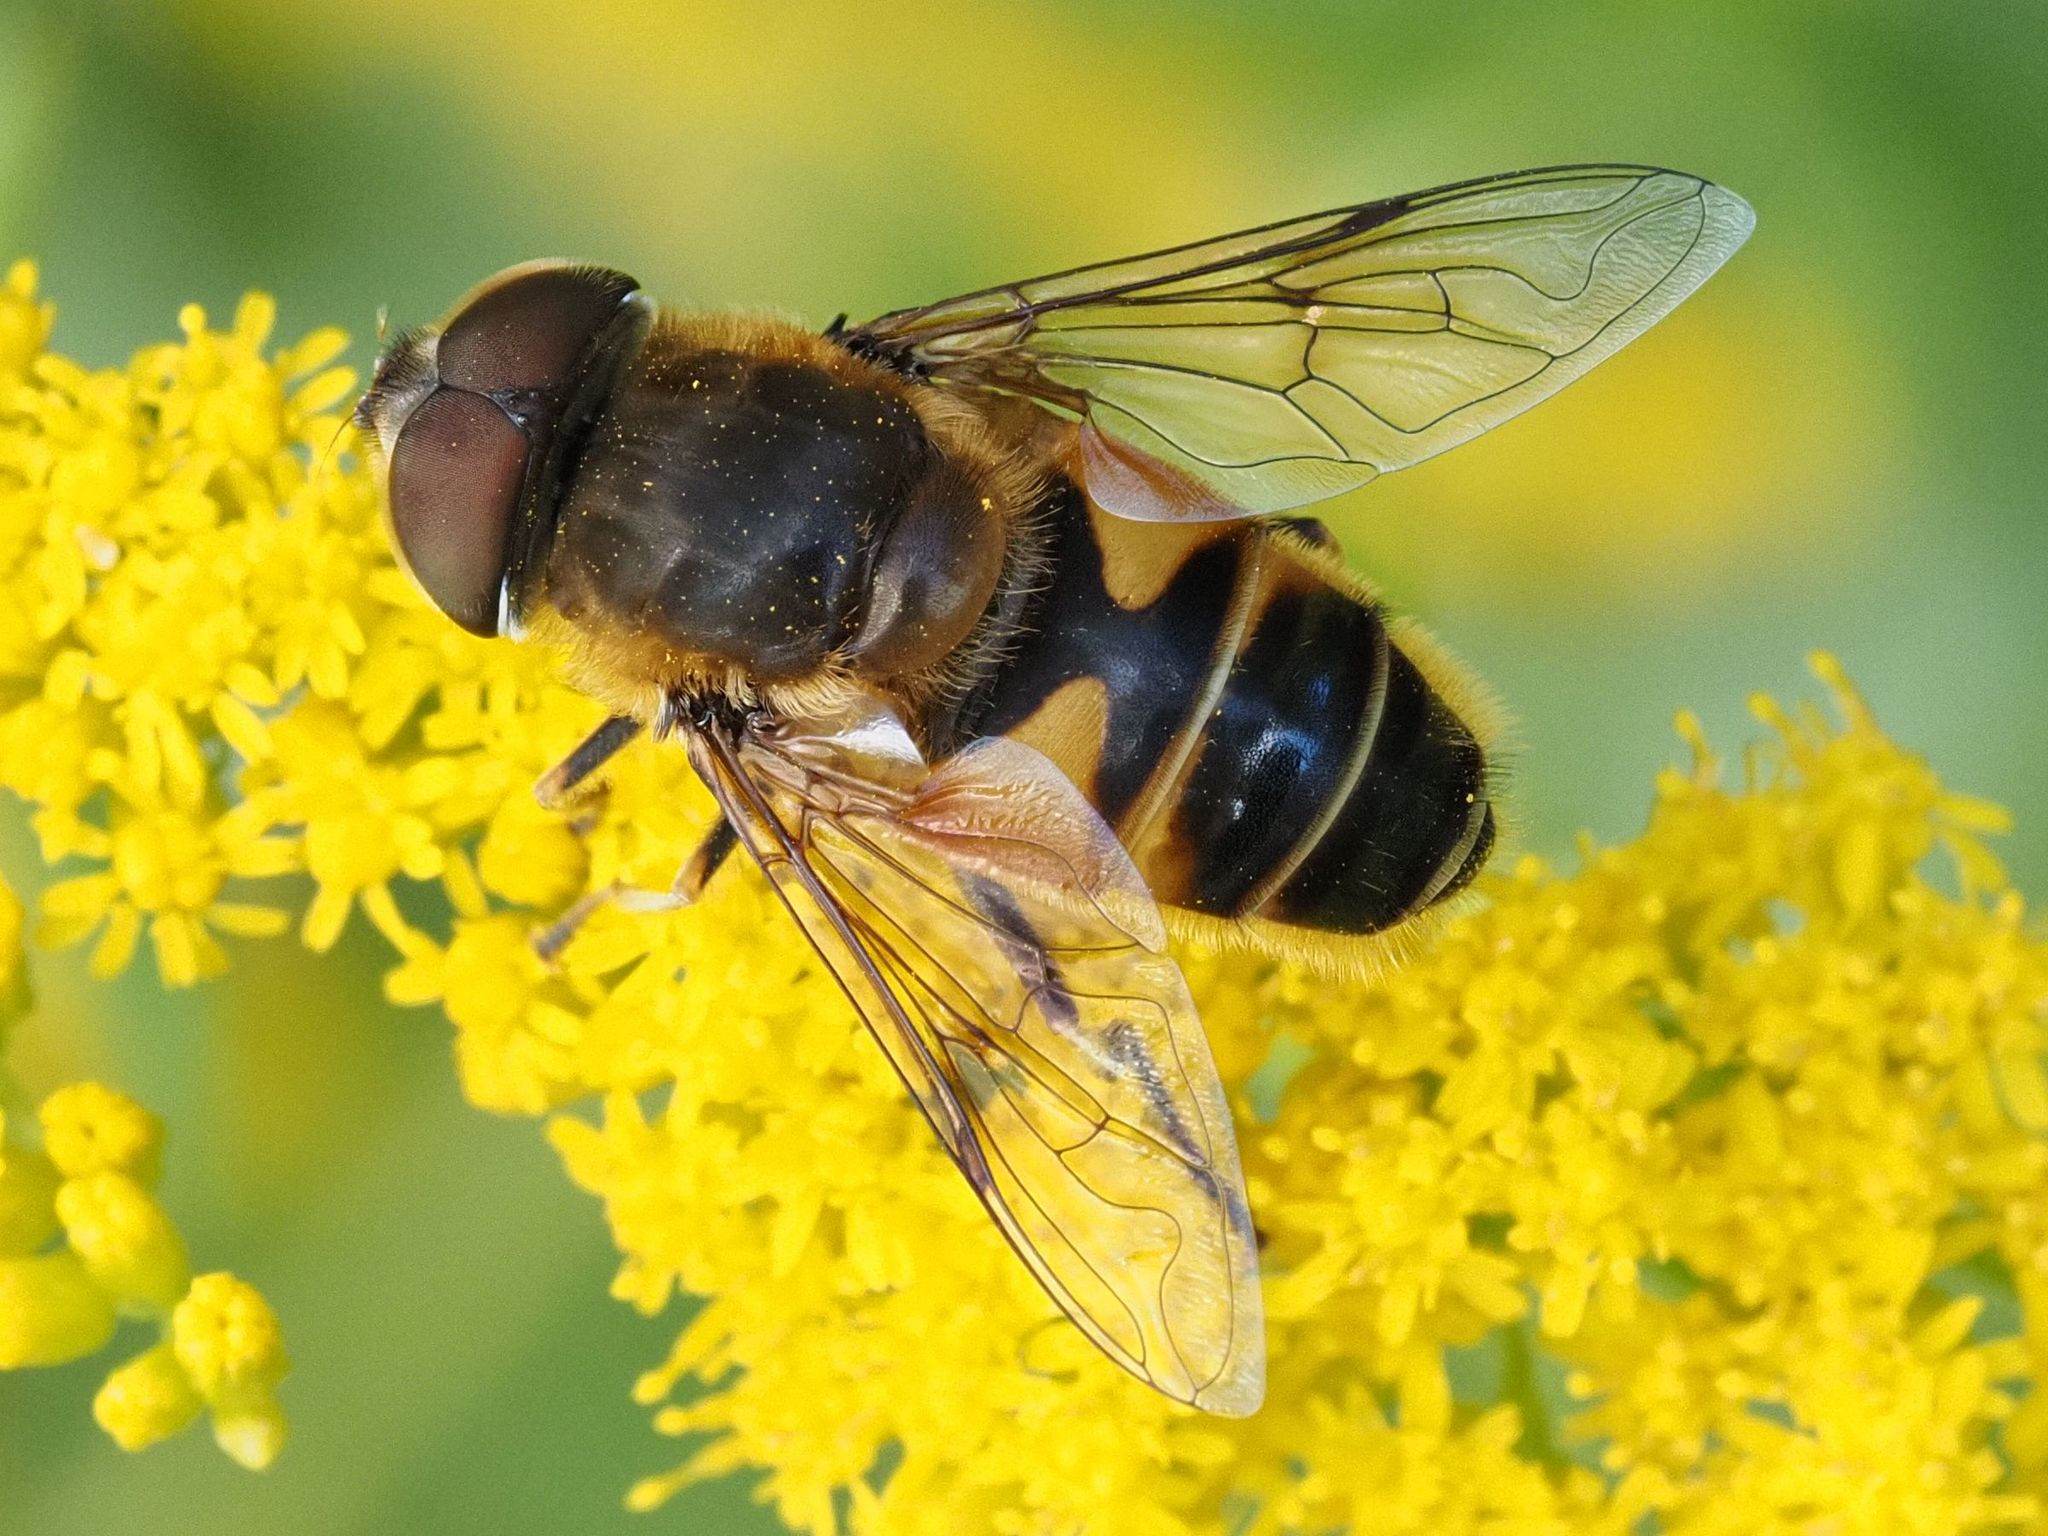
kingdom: Animalia
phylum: Arthropoda
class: Insecta
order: Diptera
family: Syrphidae
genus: Eristalis
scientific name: Eristalis pertinax
